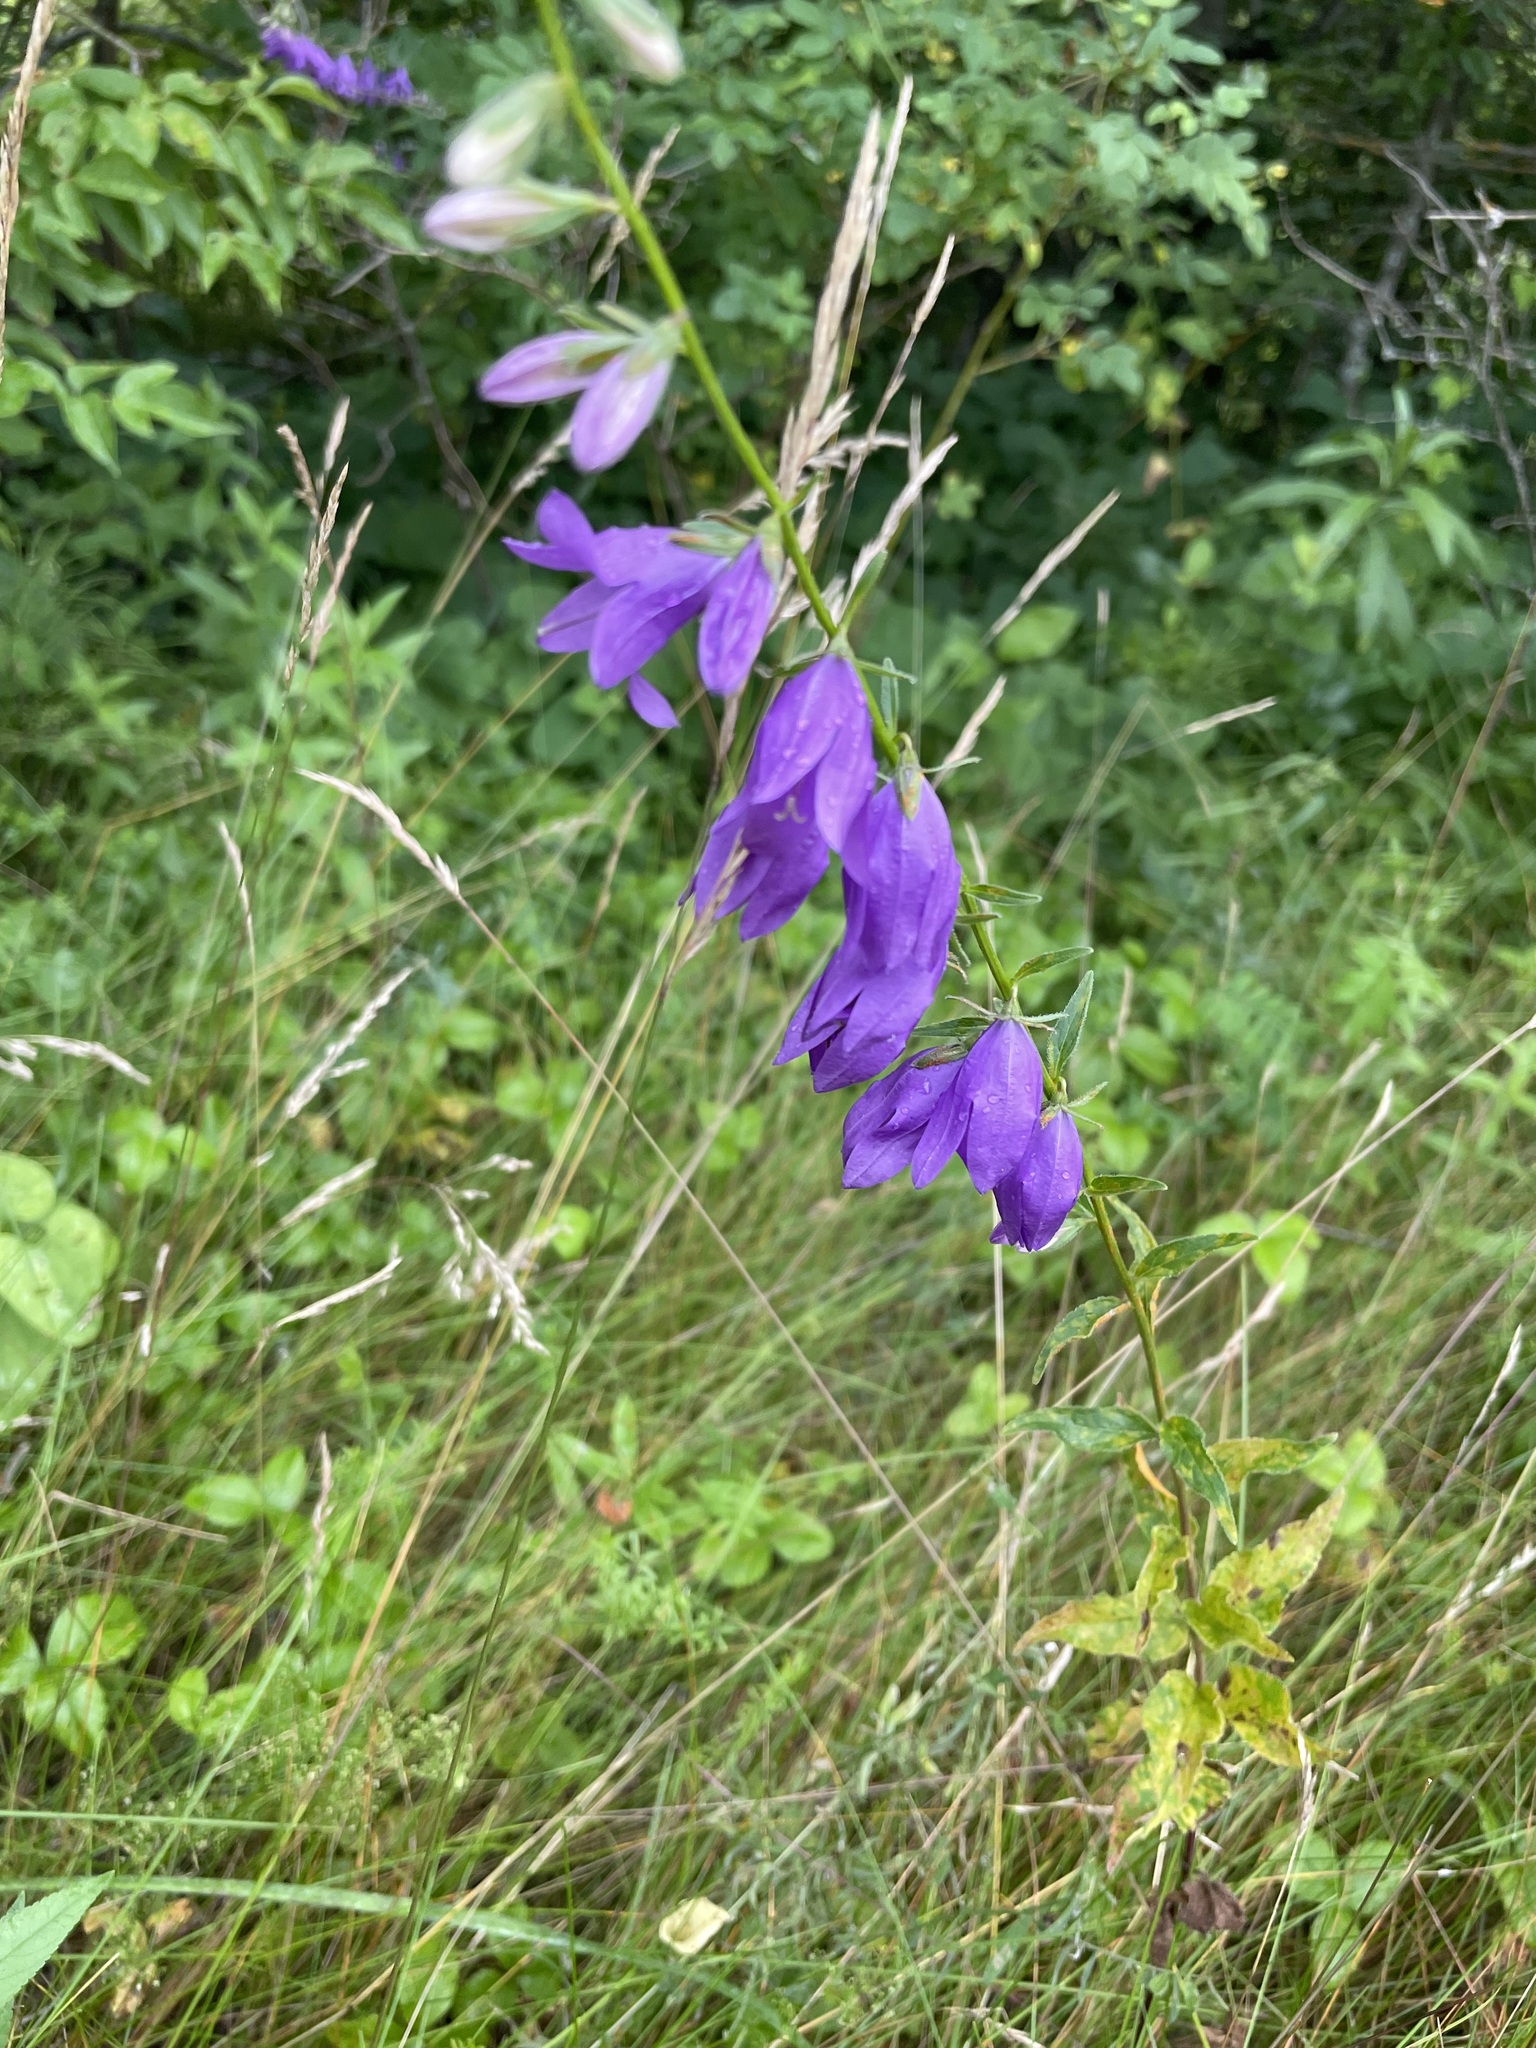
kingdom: Plantae
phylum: Tracheophyta
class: Magnoliopsida
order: Asterales
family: Campanulaceae
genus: Campanula
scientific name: Campanula rapunculoides
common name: Creeping bellflower
